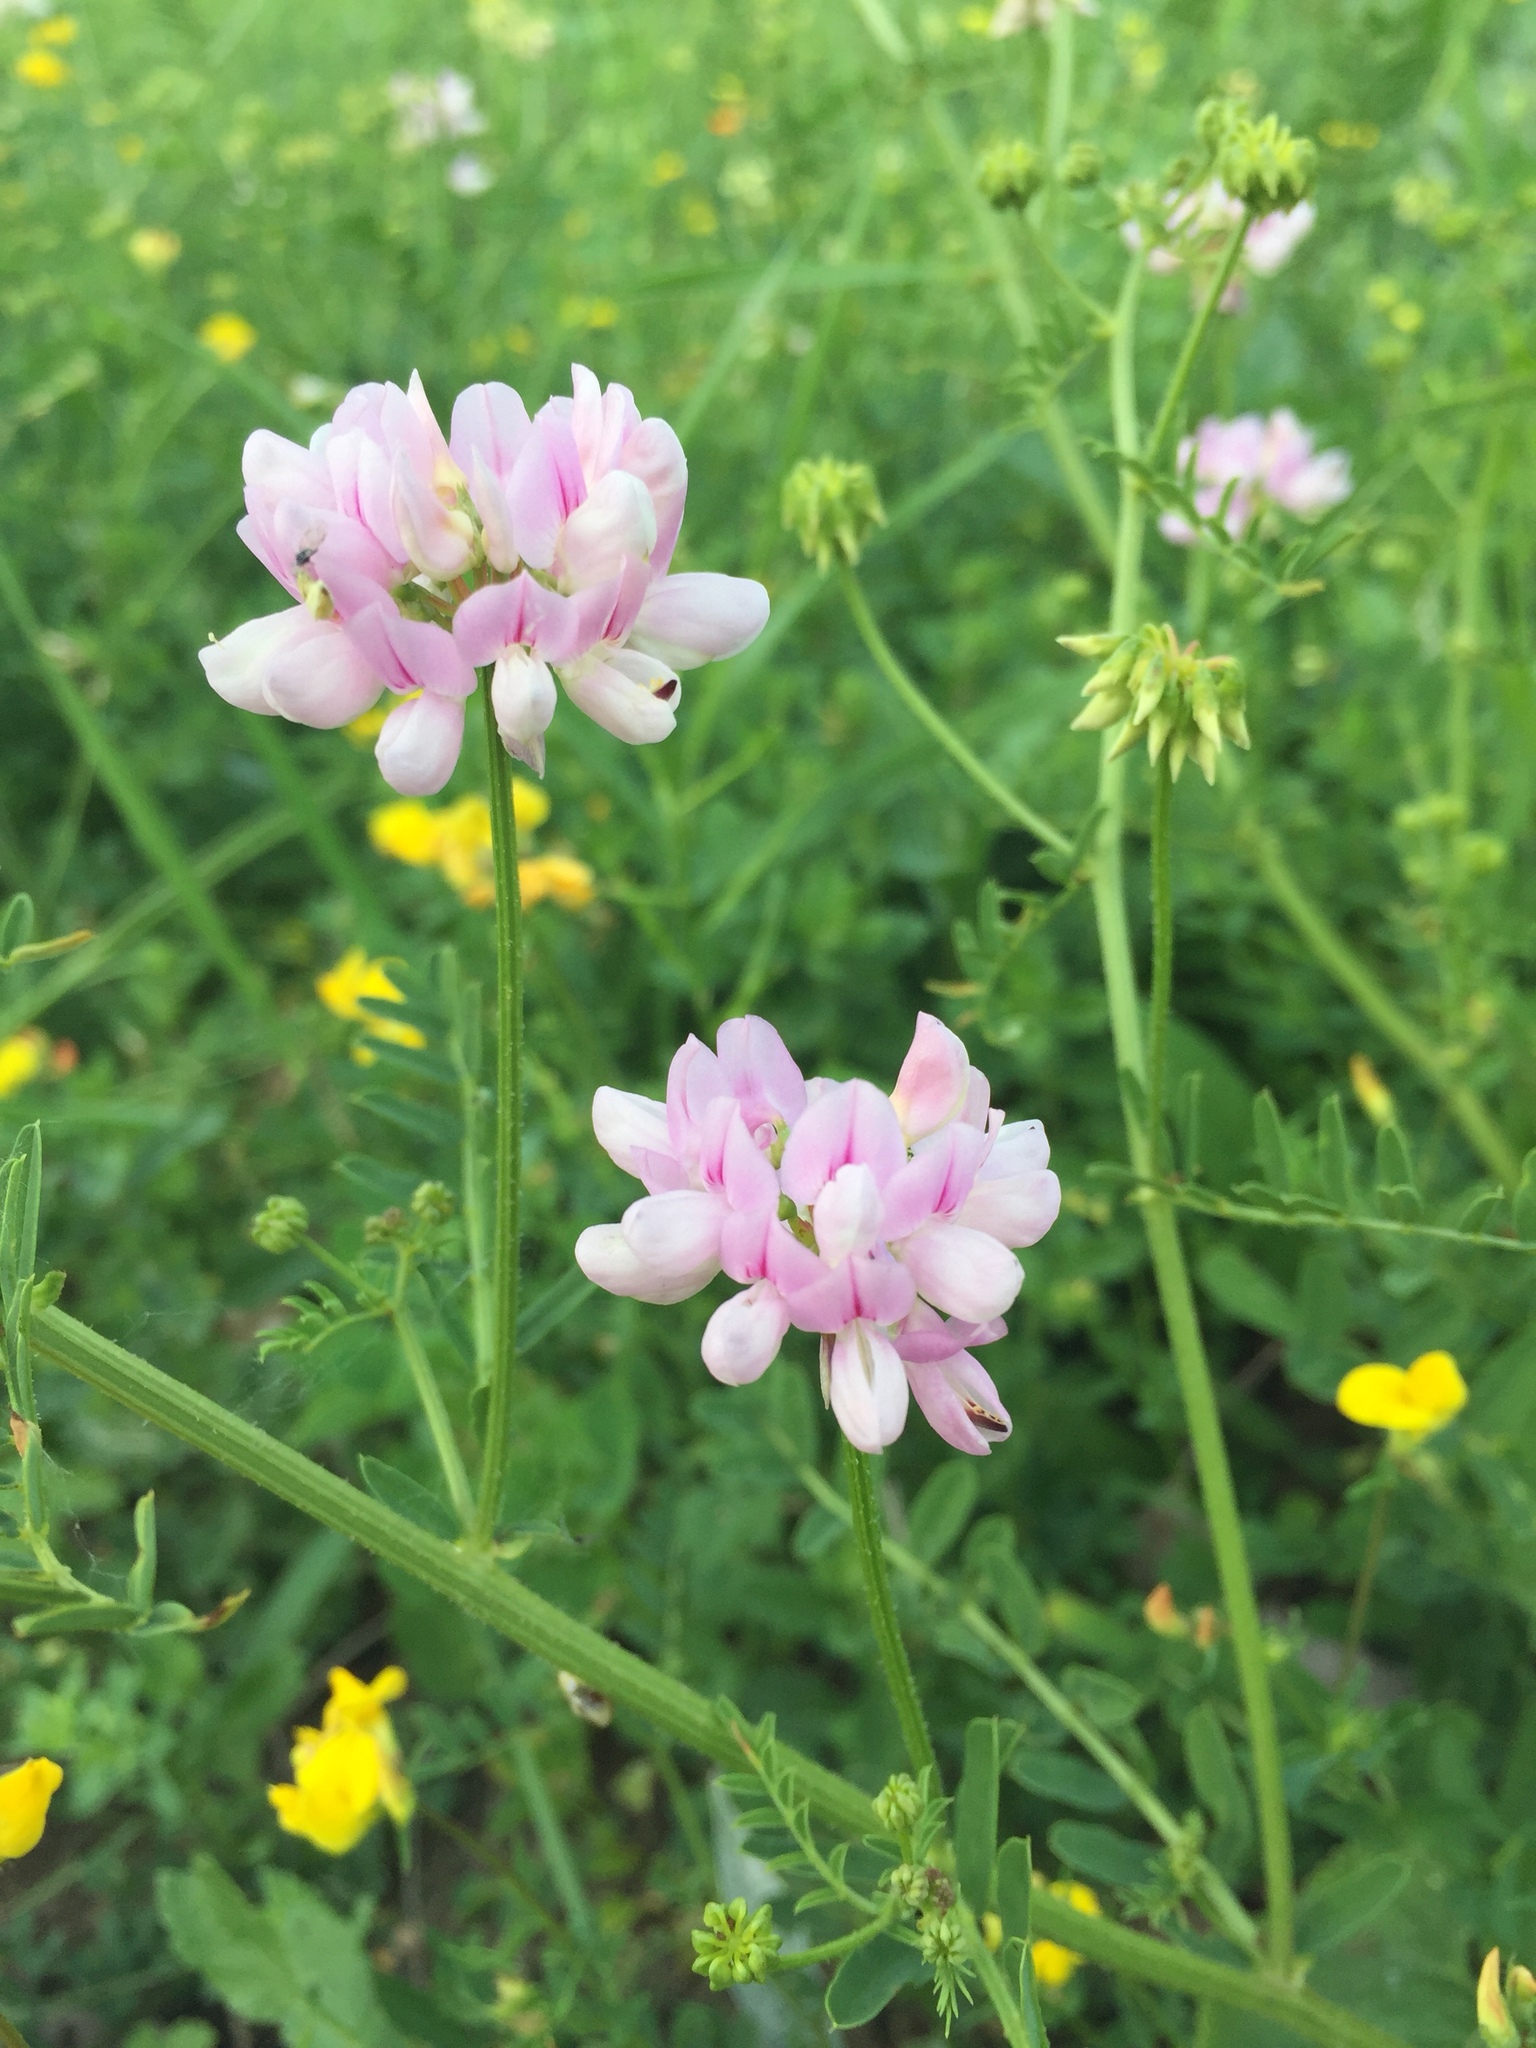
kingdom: Plantae
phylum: Tracheophyta
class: Magnoliopsida
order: Fabales
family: Fabaceae
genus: Coronilla
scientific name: Coronilla varia
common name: Crownvetch
